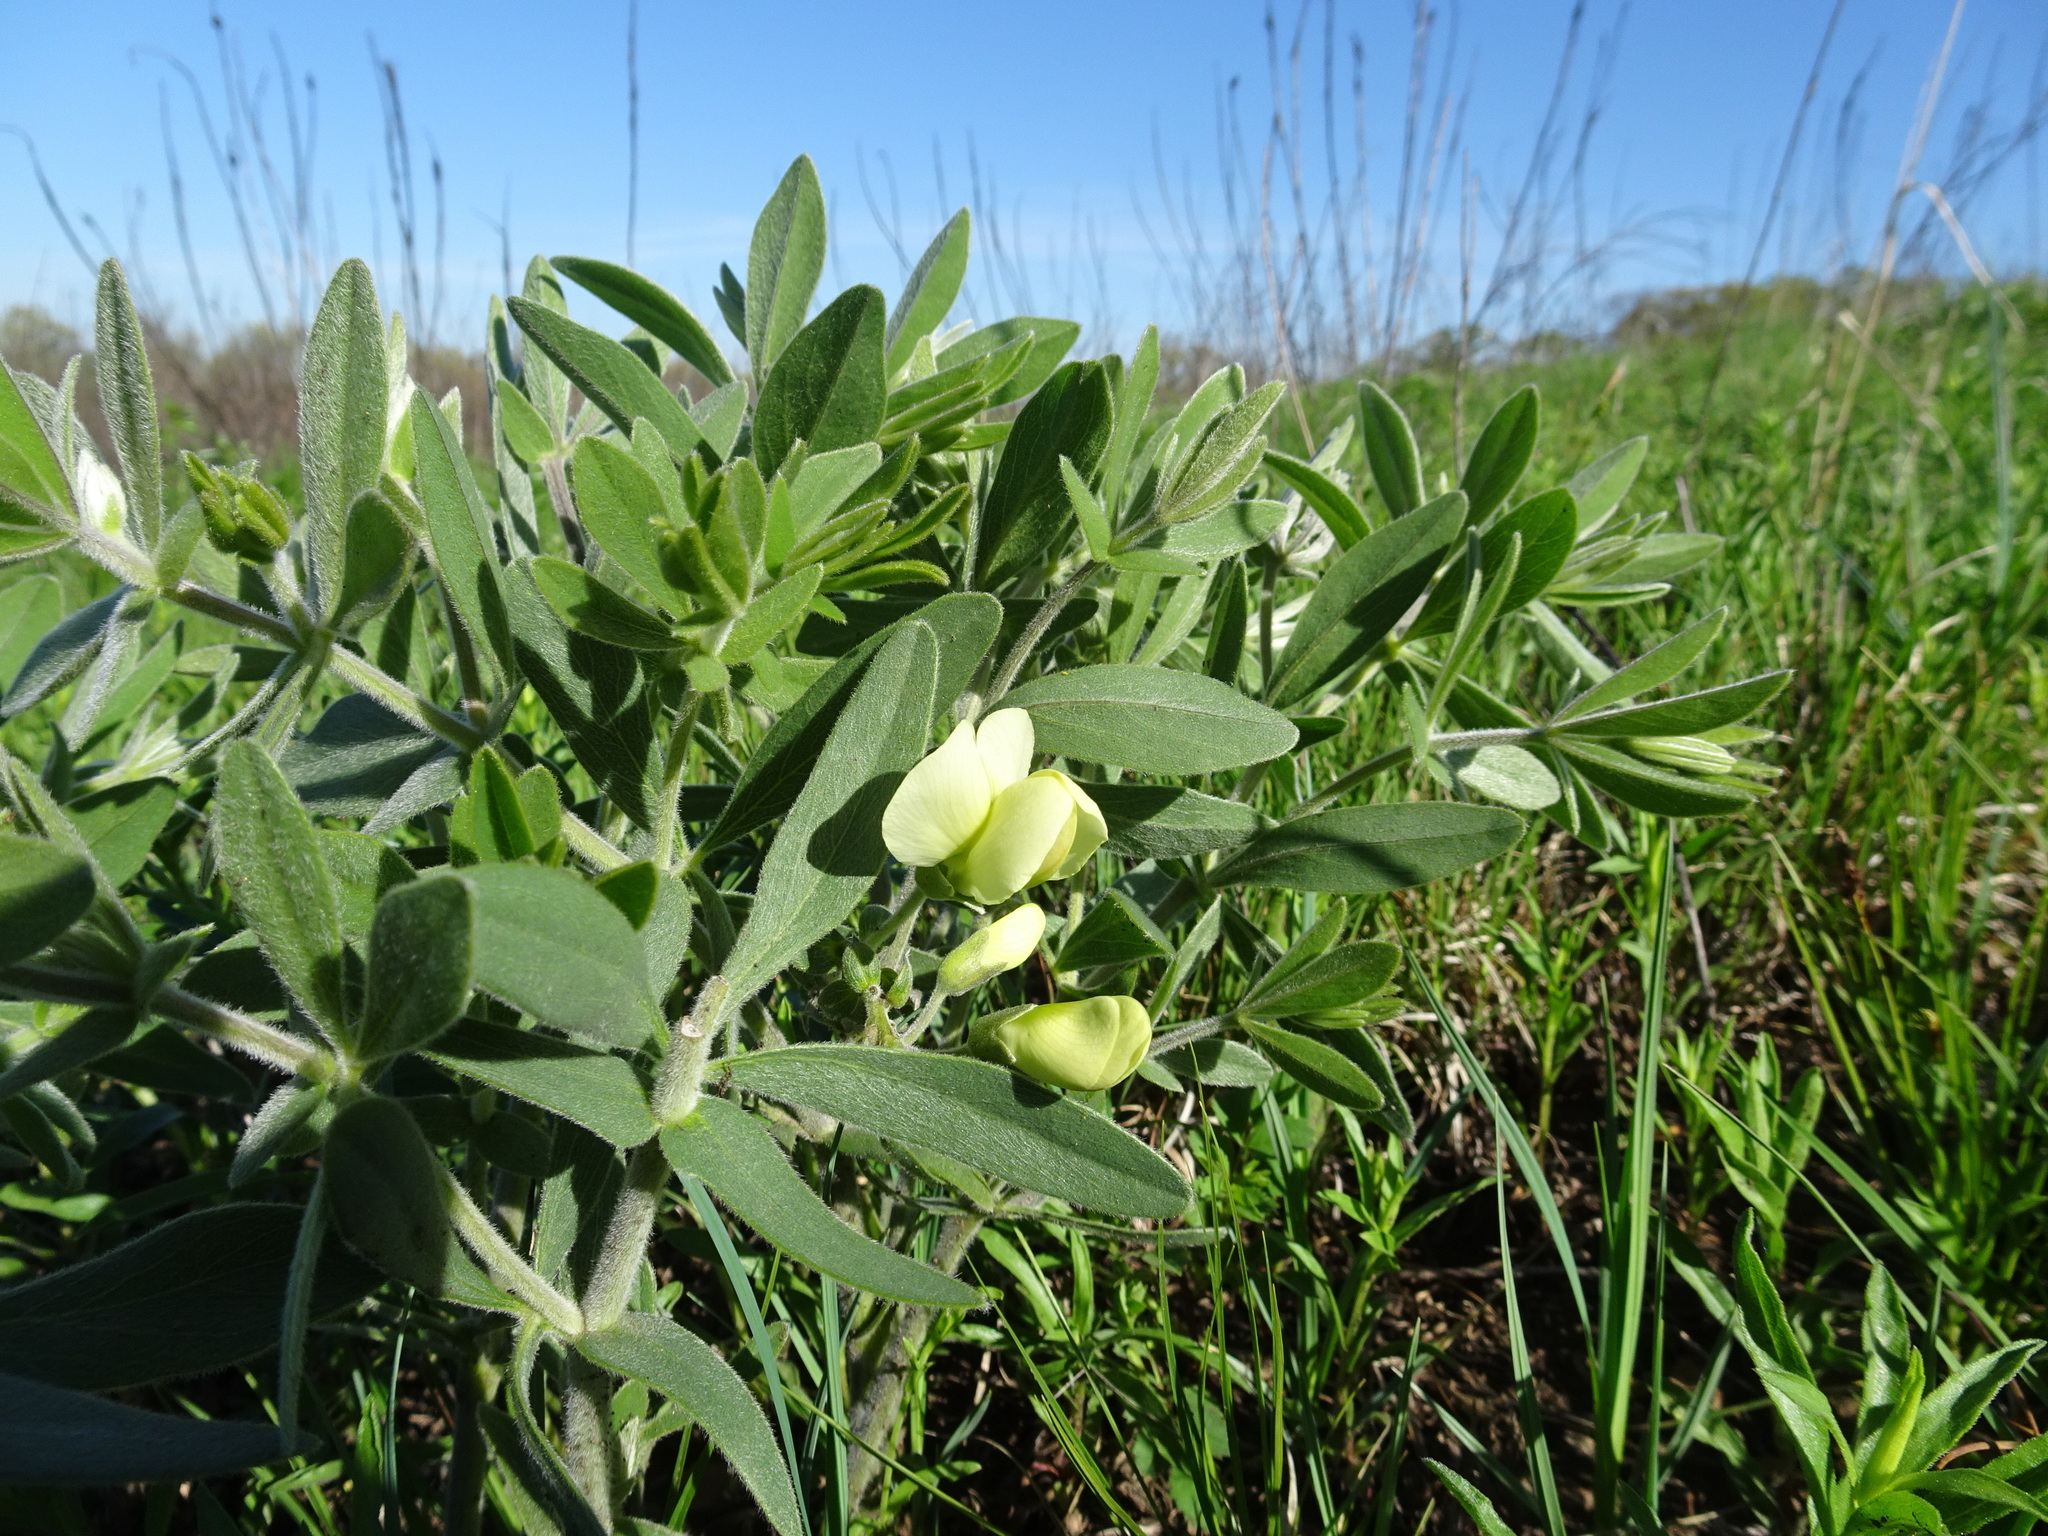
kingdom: Plantae
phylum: Tracheophyta
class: Magnoliopsida
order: Fabales
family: Fabaceae
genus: Baptisia
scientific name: Baptisia bracteata
